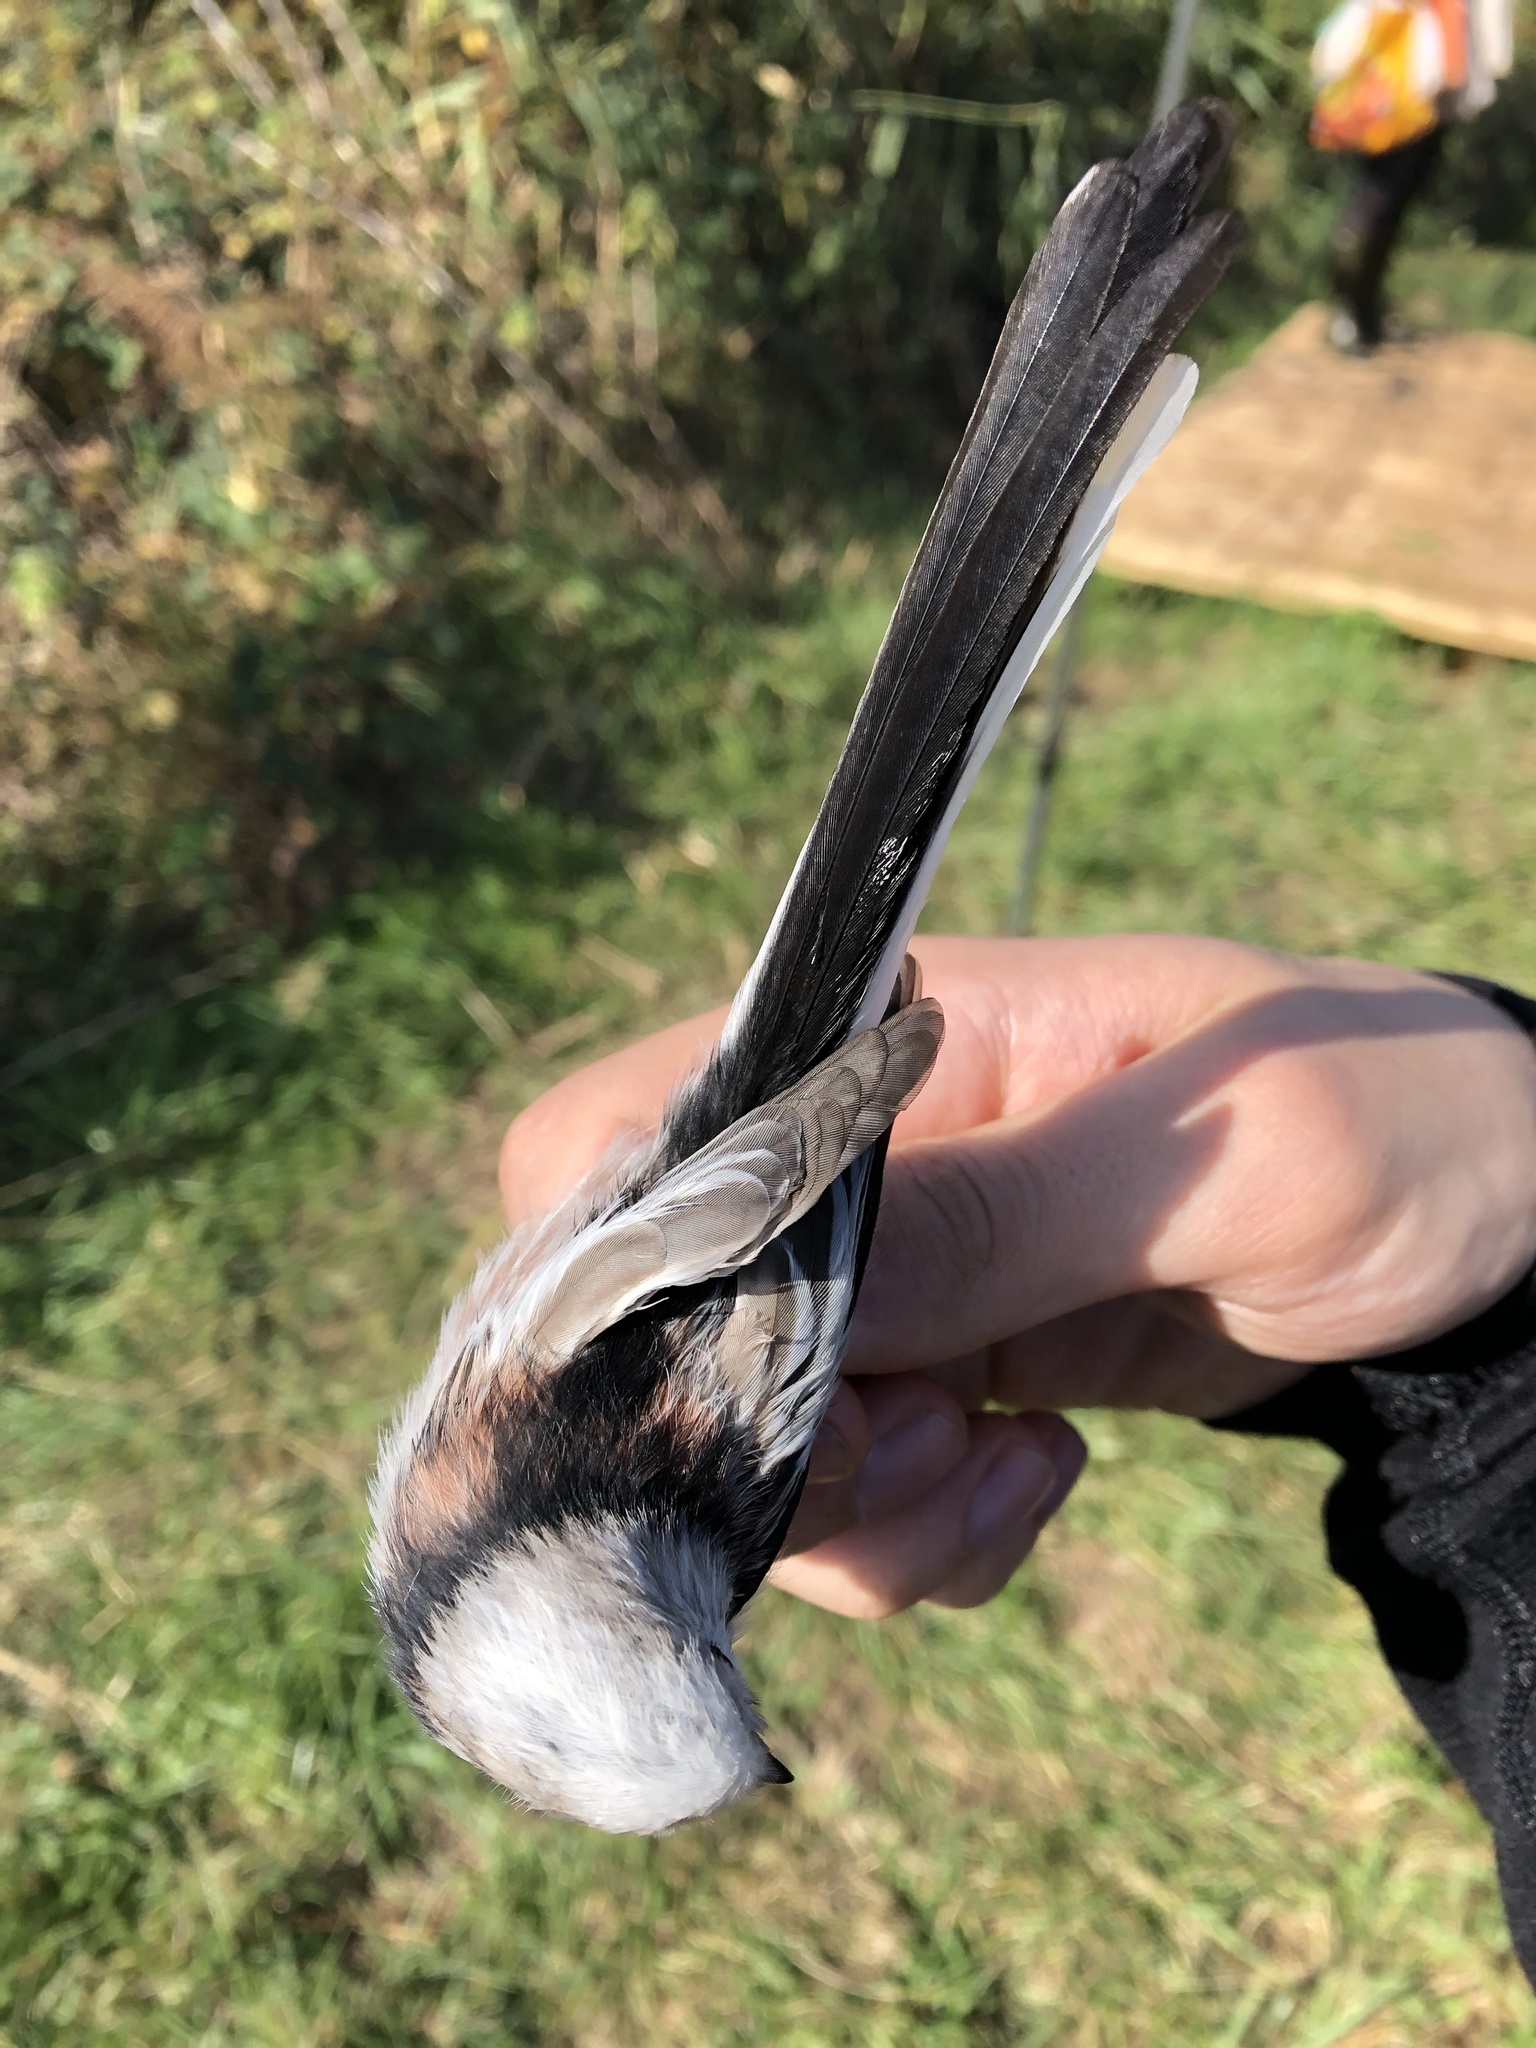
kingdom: Animalia
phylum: Chordata
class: Aves
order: Passeriformes
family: Aegithalidae
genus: Aegithalos
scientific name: Aegithalos caudatus
